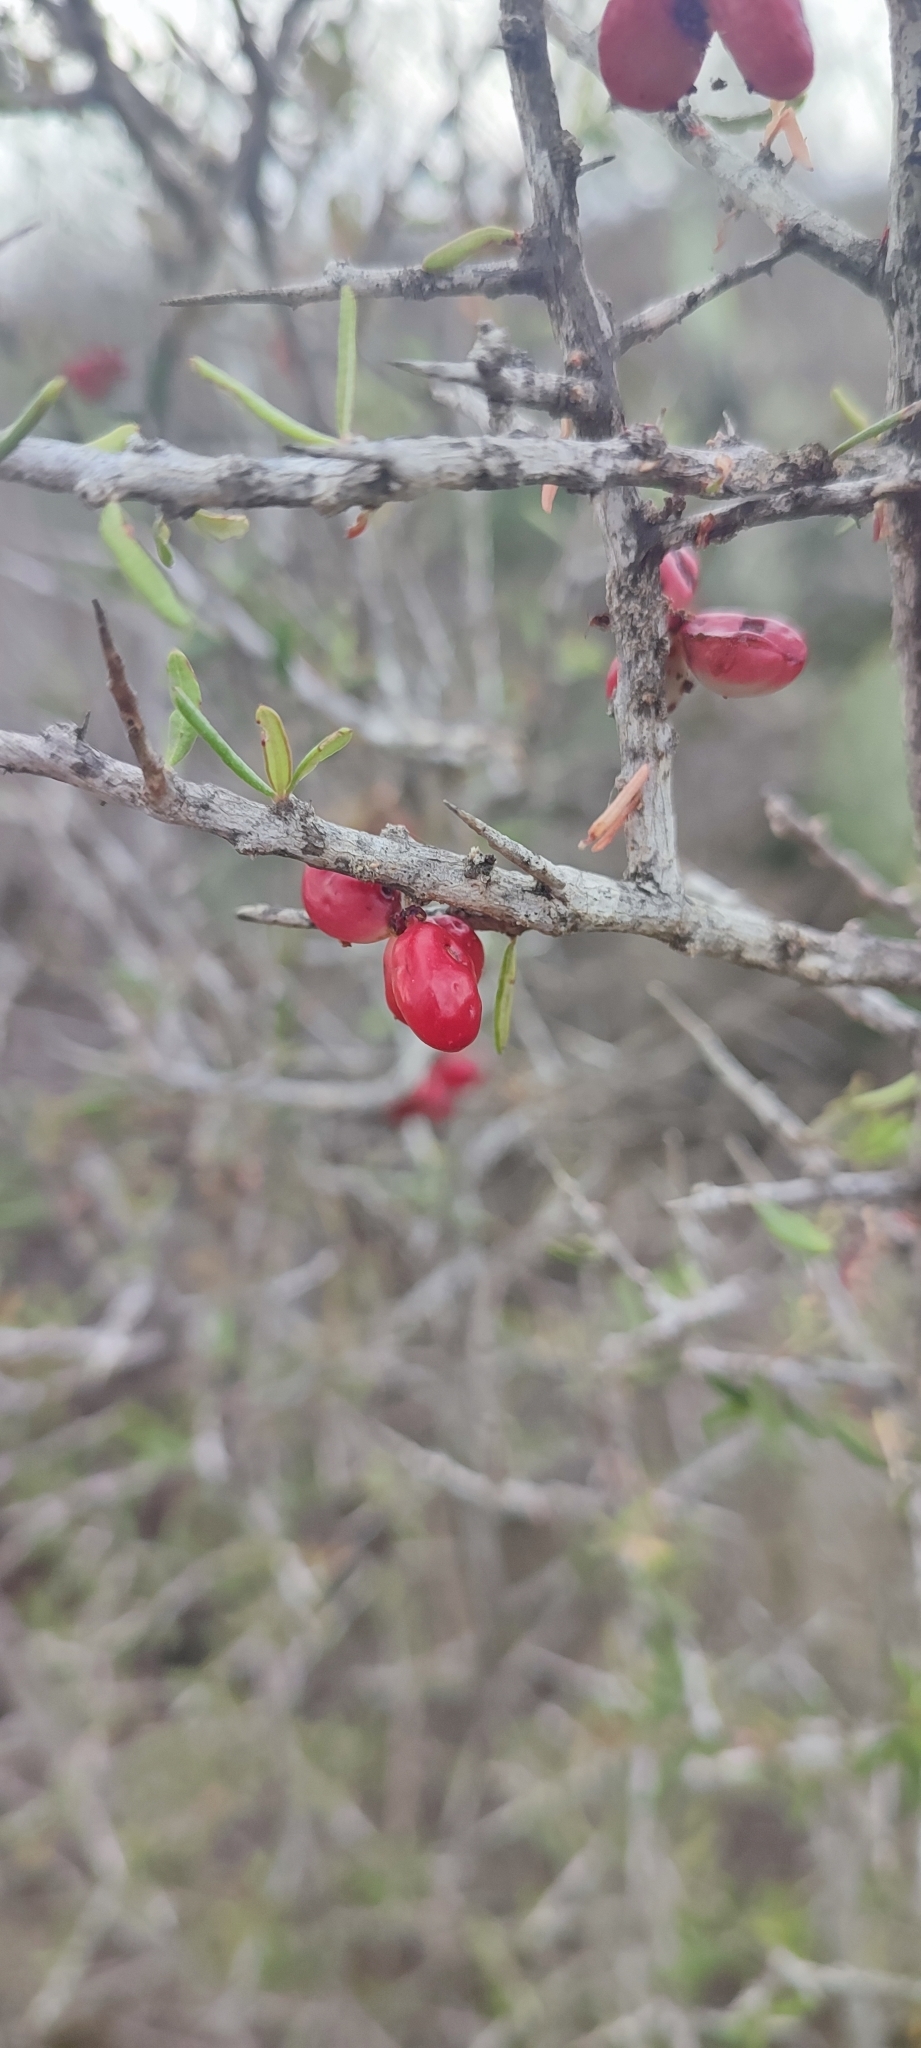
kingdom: Plantae
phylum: Tracheophyta
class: Magnoliopsida
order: Sapindales
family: Simaroubaceae
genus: Castela
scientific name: Castela erecta
